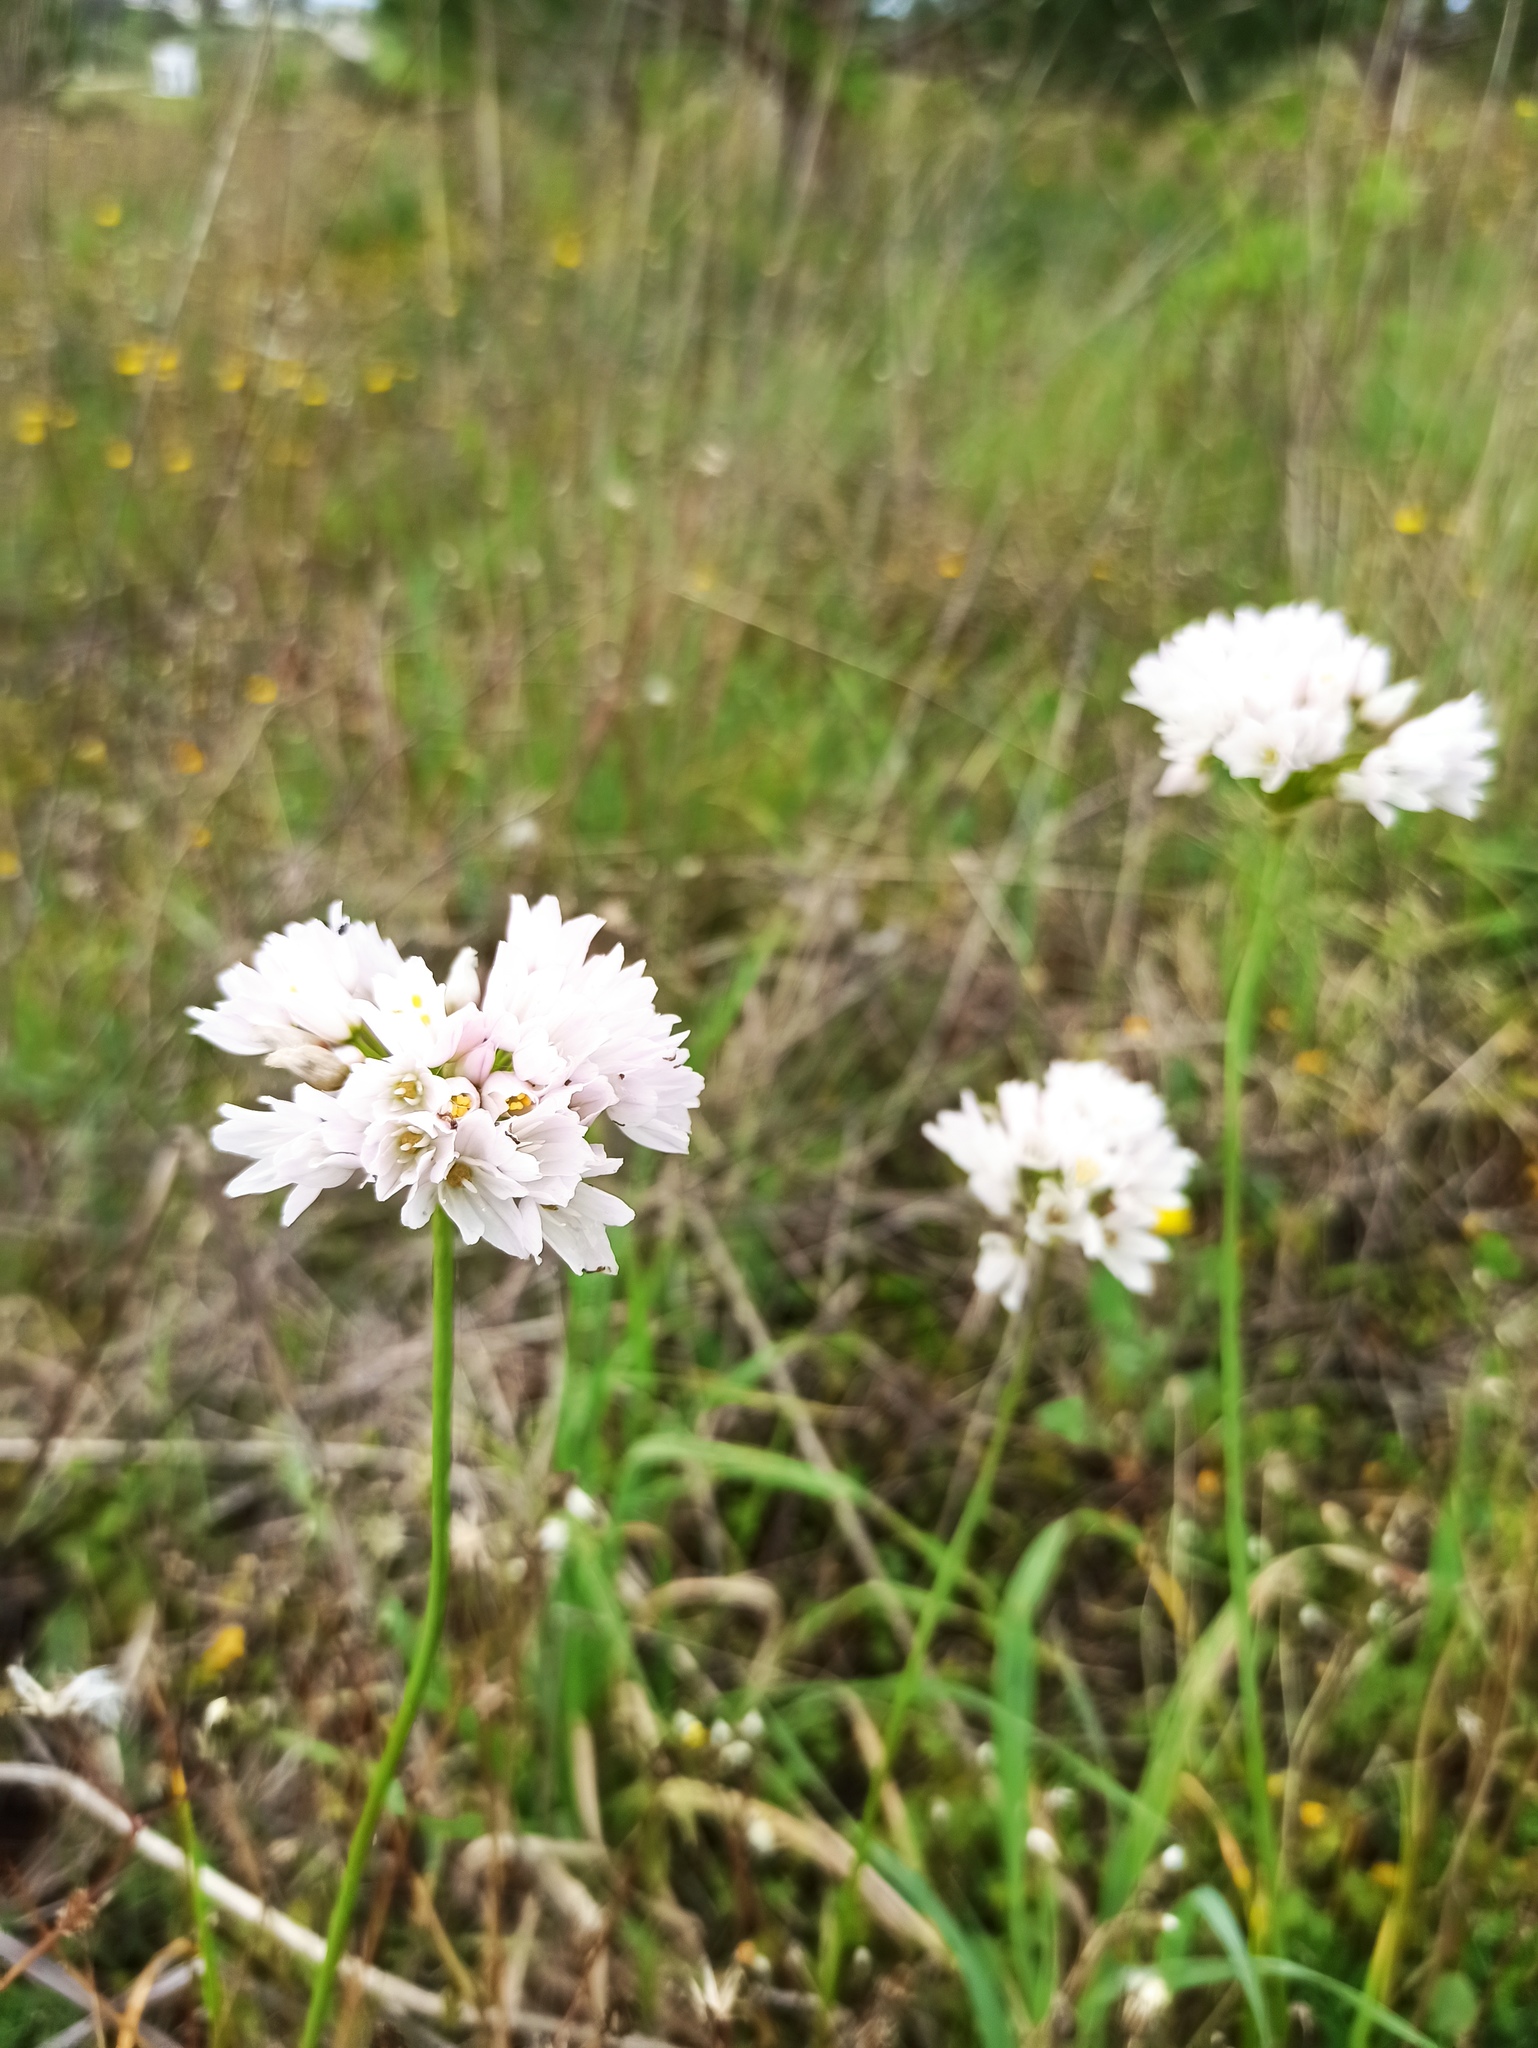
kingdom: Plantae
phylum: Tracheophyta
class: Liliopsida
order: Asparagales
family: Amaryllidaceae
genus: Allium
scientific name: Allium roseum
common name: Rosy garlic
